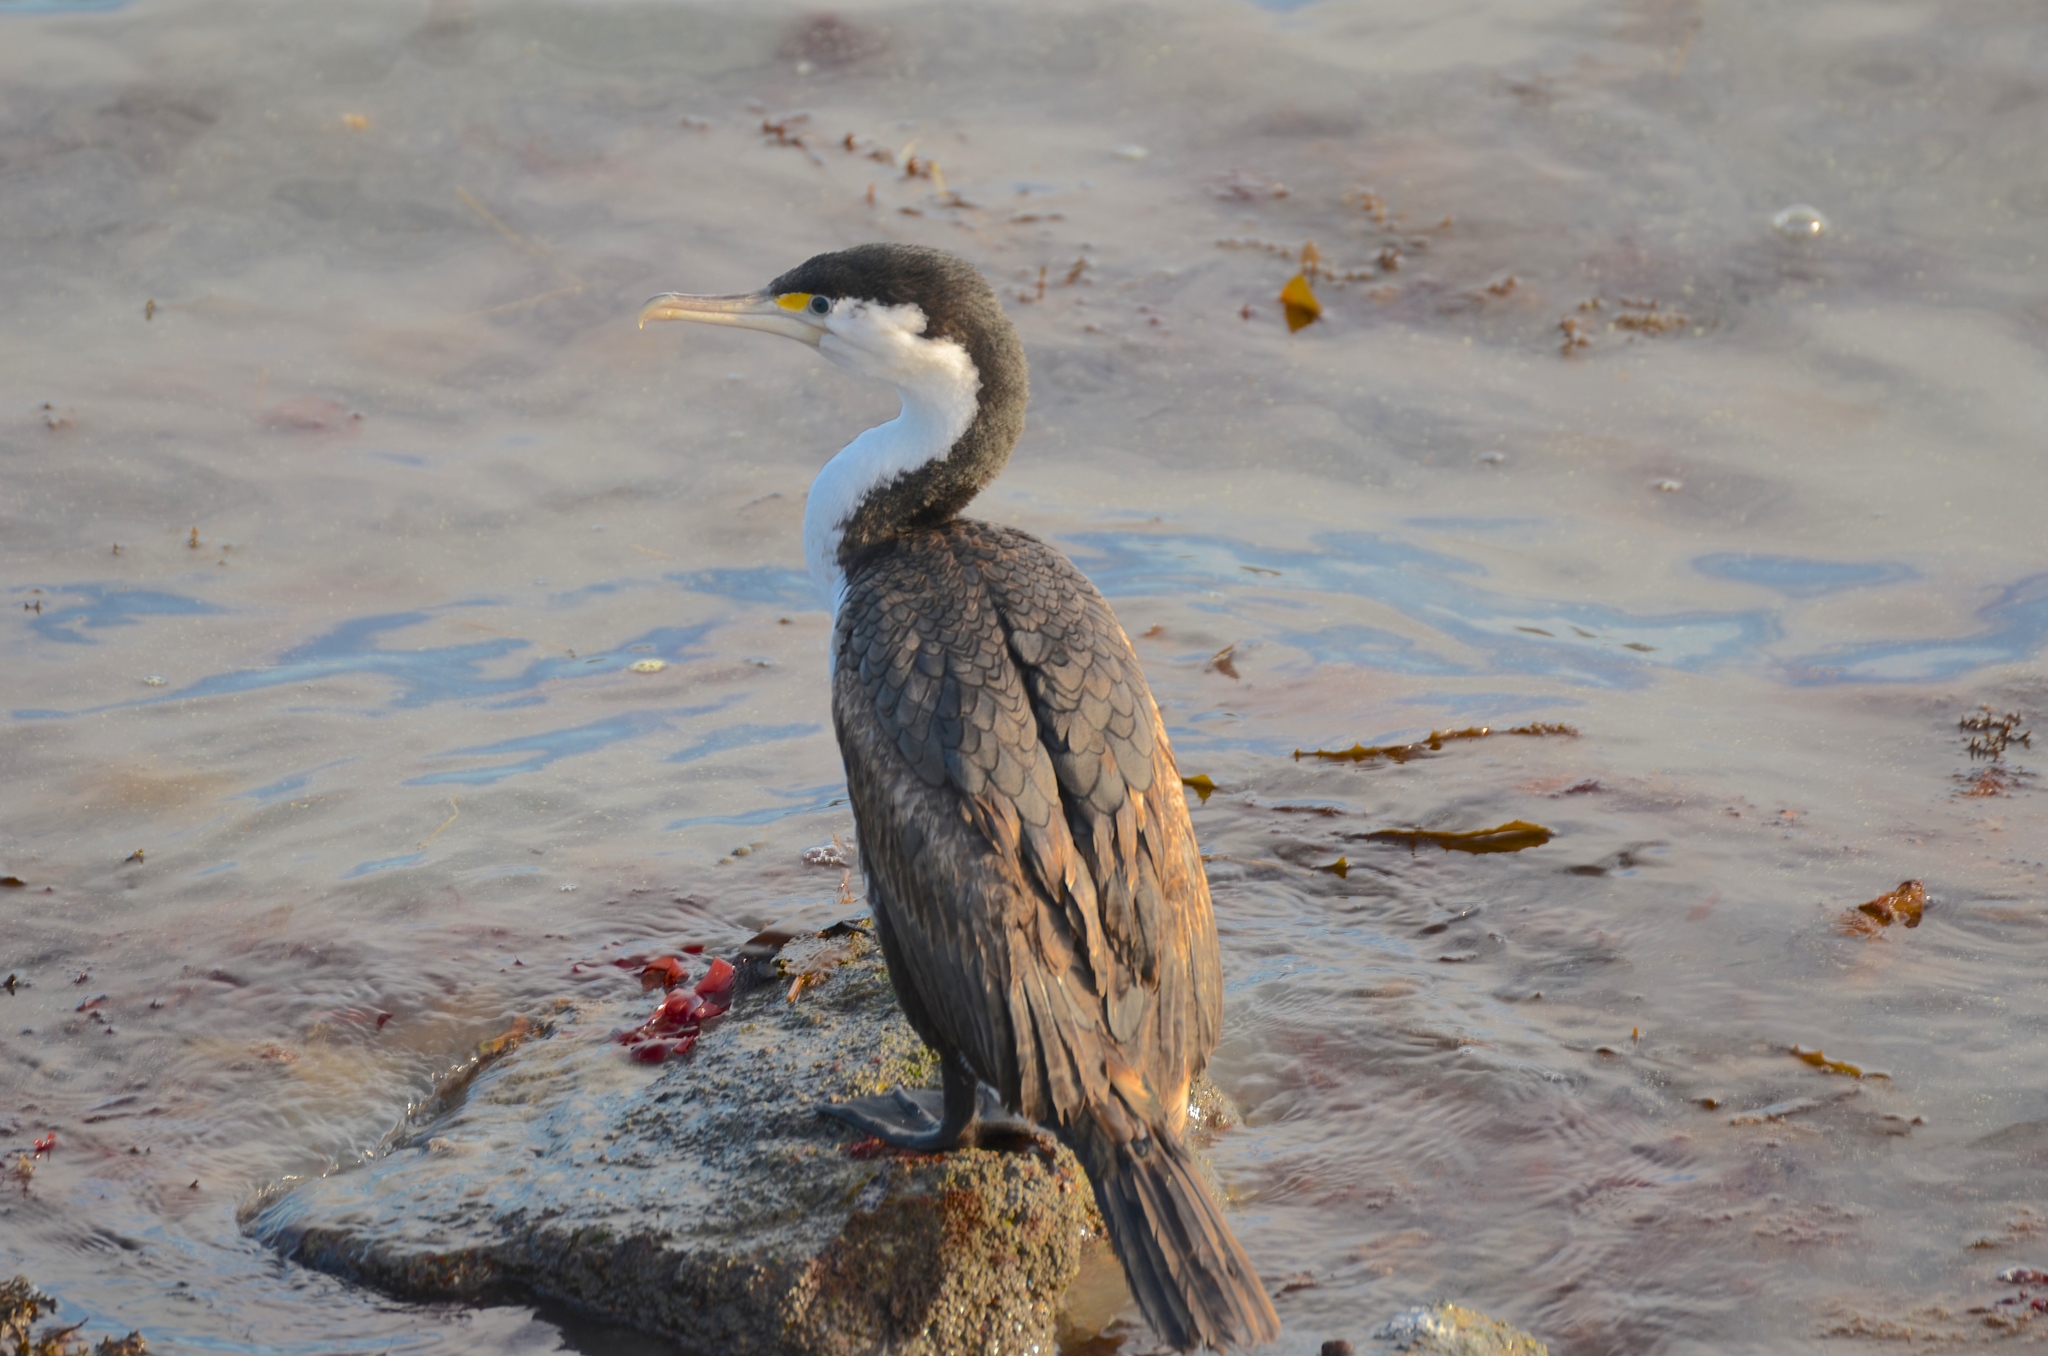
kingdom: Animalia
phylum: Chordata
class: Aves
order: Suliformes
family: Phalacrocoracidae
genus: Phalacrocorax
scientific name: Phalacrocorax varius
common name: Pied cormorant
